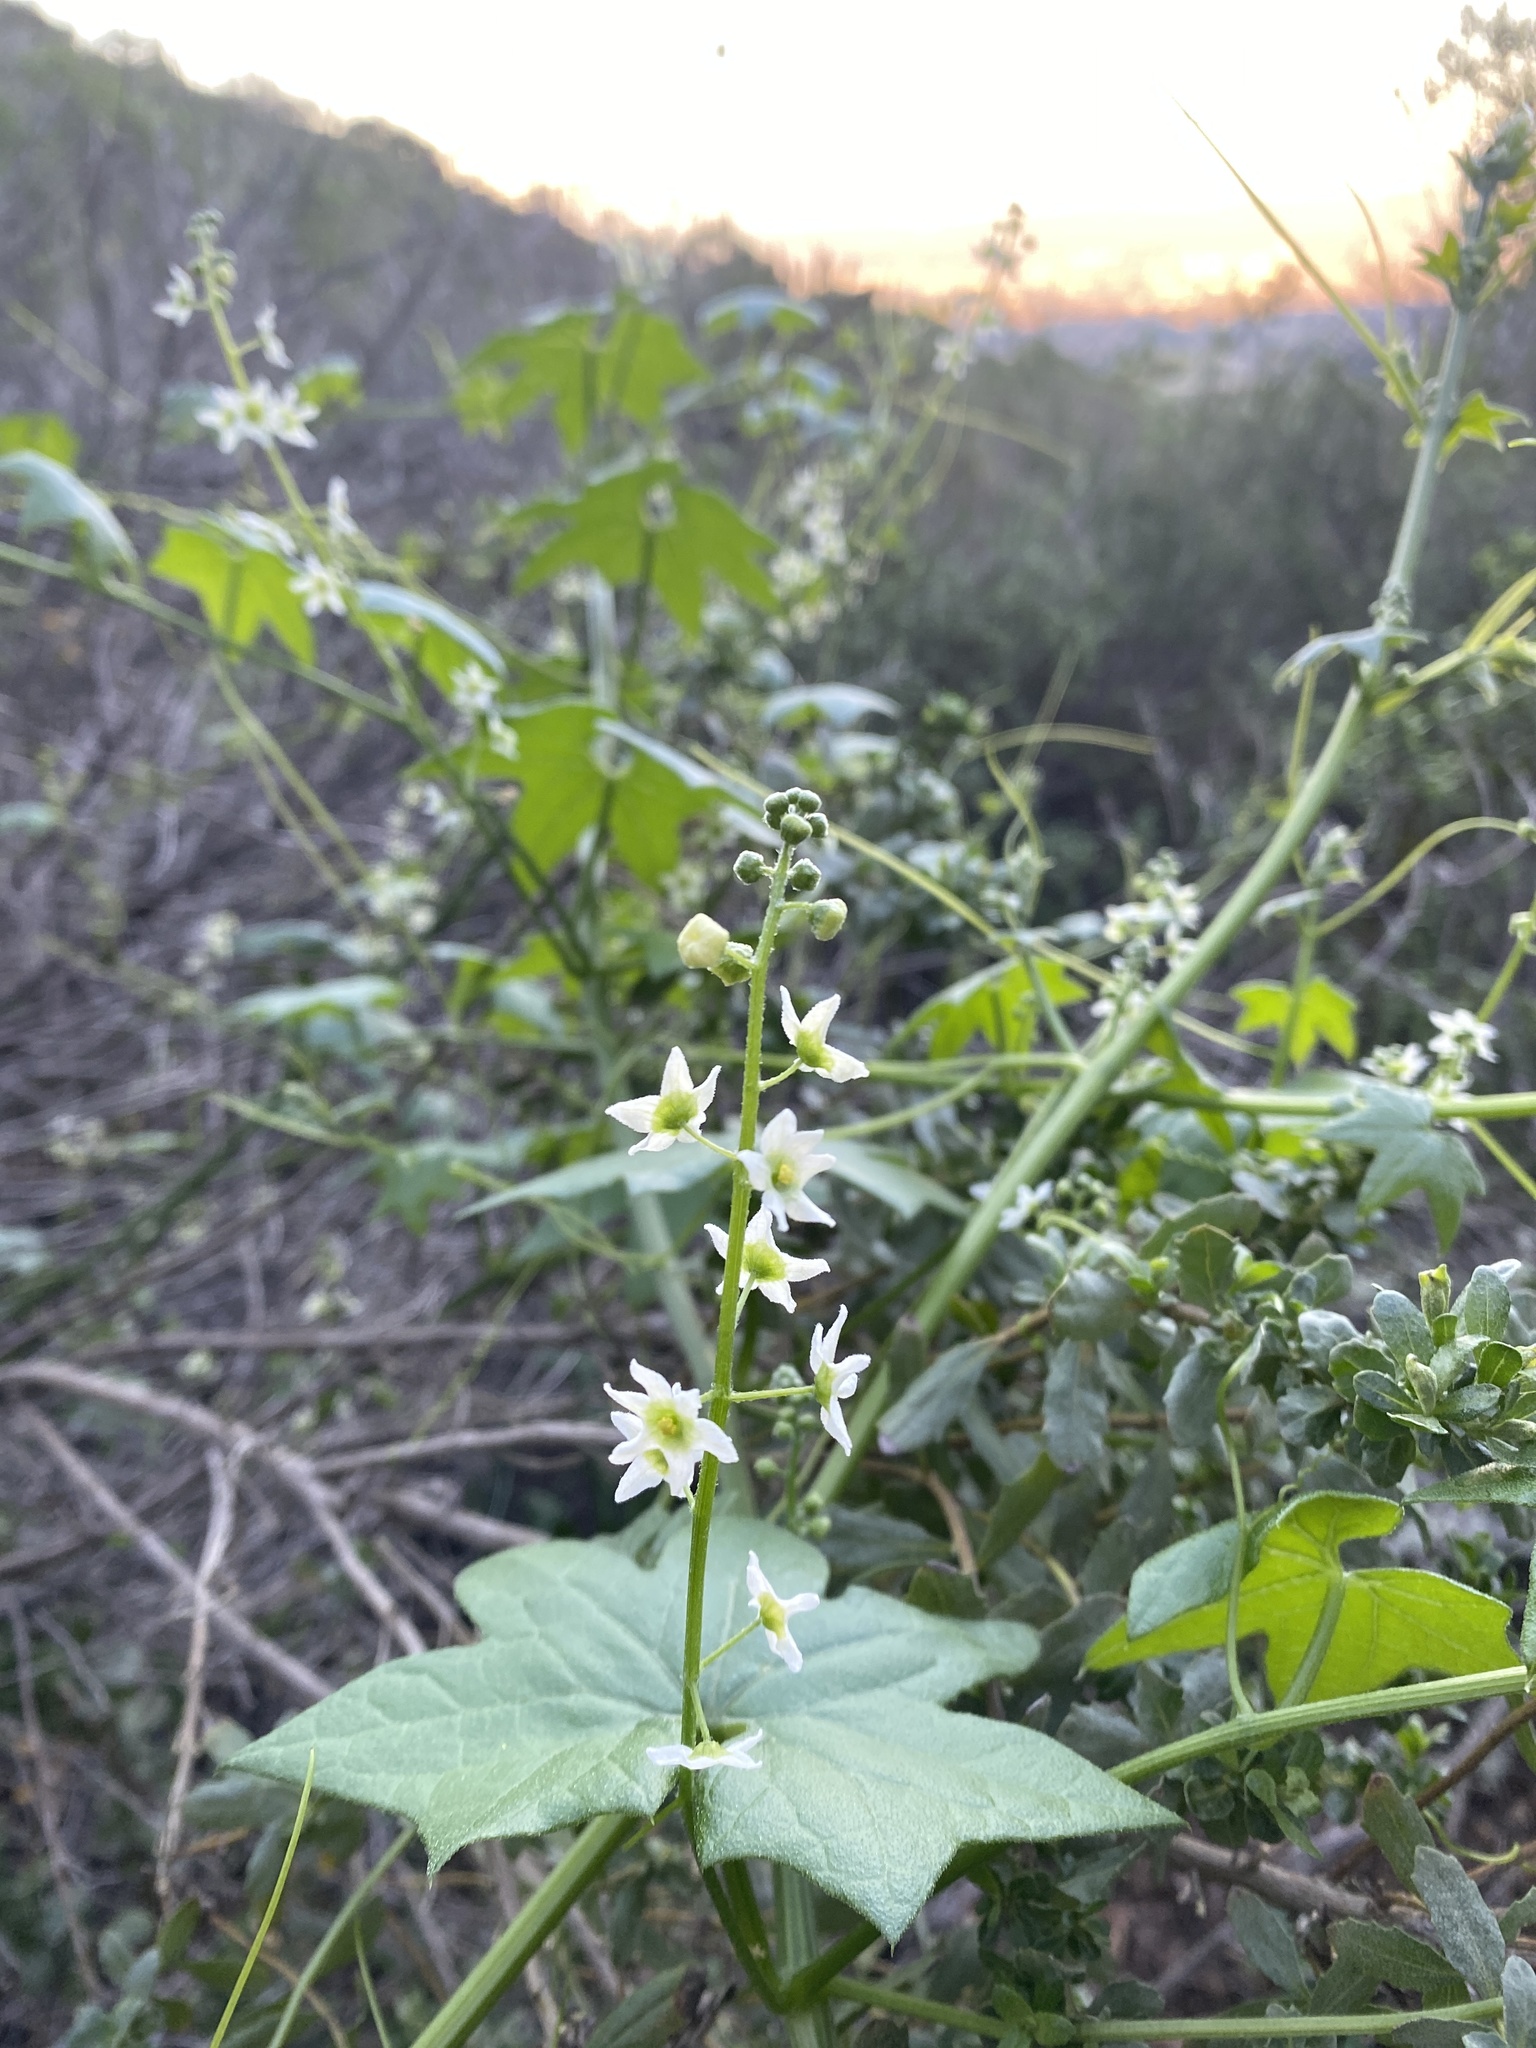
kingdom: Plantae
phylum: Tracheophyta
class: Magnoliopsida
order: Cucurbitales
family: Cucurbitaceae
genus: Marah
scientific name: Marah fabacea
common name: California manroot
